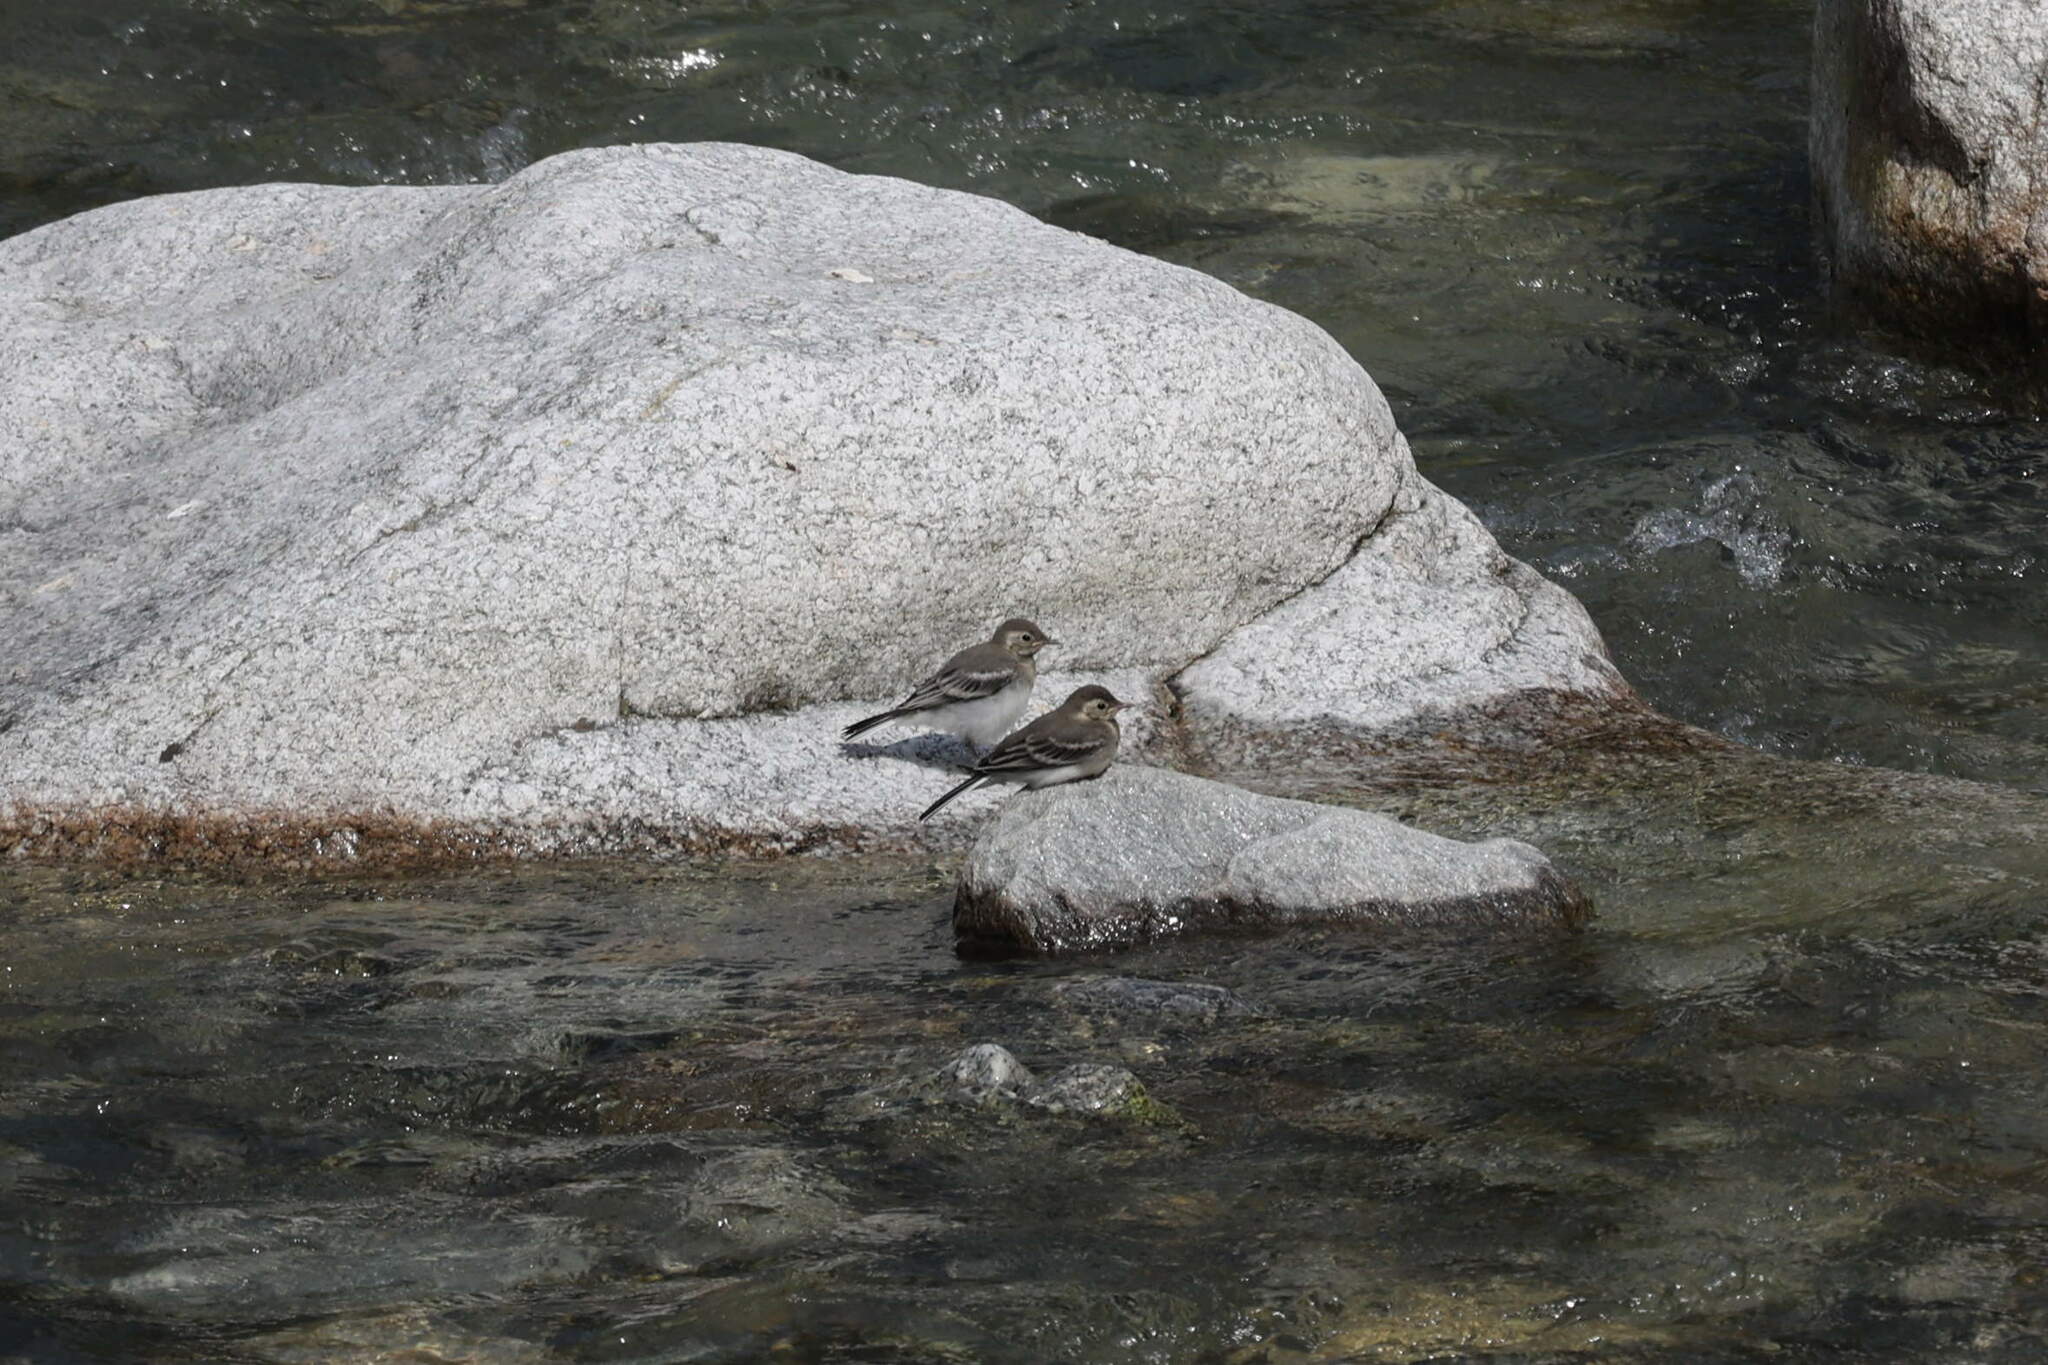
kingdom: Animalia
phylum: Chordata
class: Aves
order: Passeriformes
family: Motacillidae
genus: Motacilla
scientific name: Motacilla alba
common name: White wagtail
